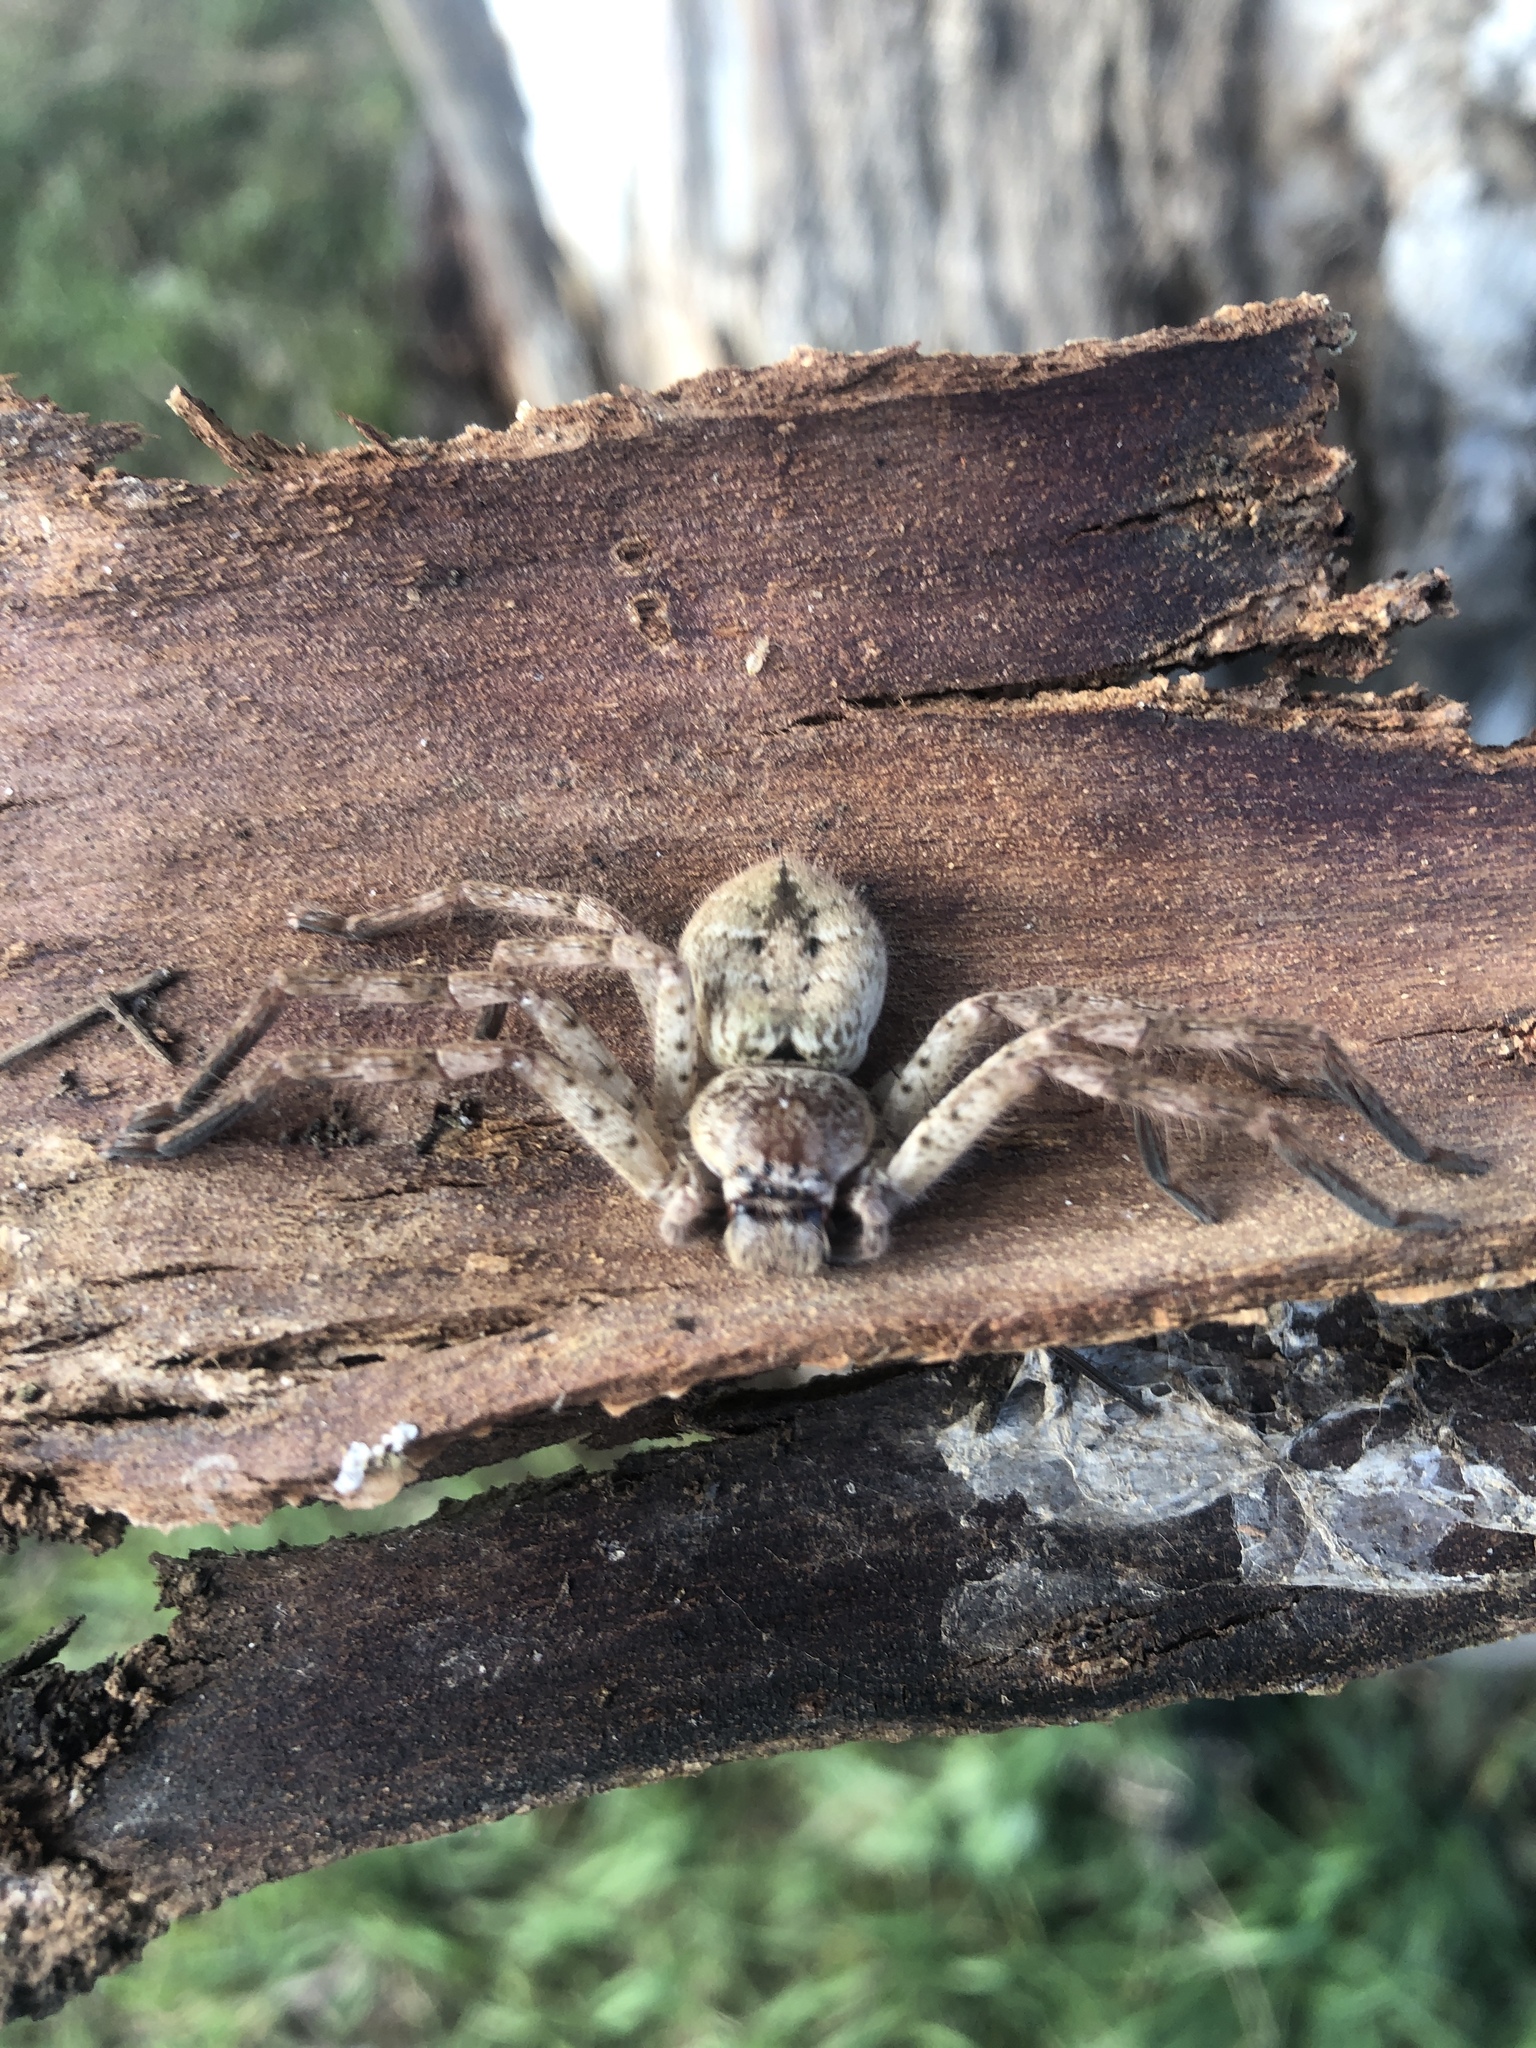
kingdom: Animalia
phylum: Arthropoda
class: Arachnida
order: Araneae
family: Sparassidae
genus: Isopedella
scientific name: Isopedella flavida
